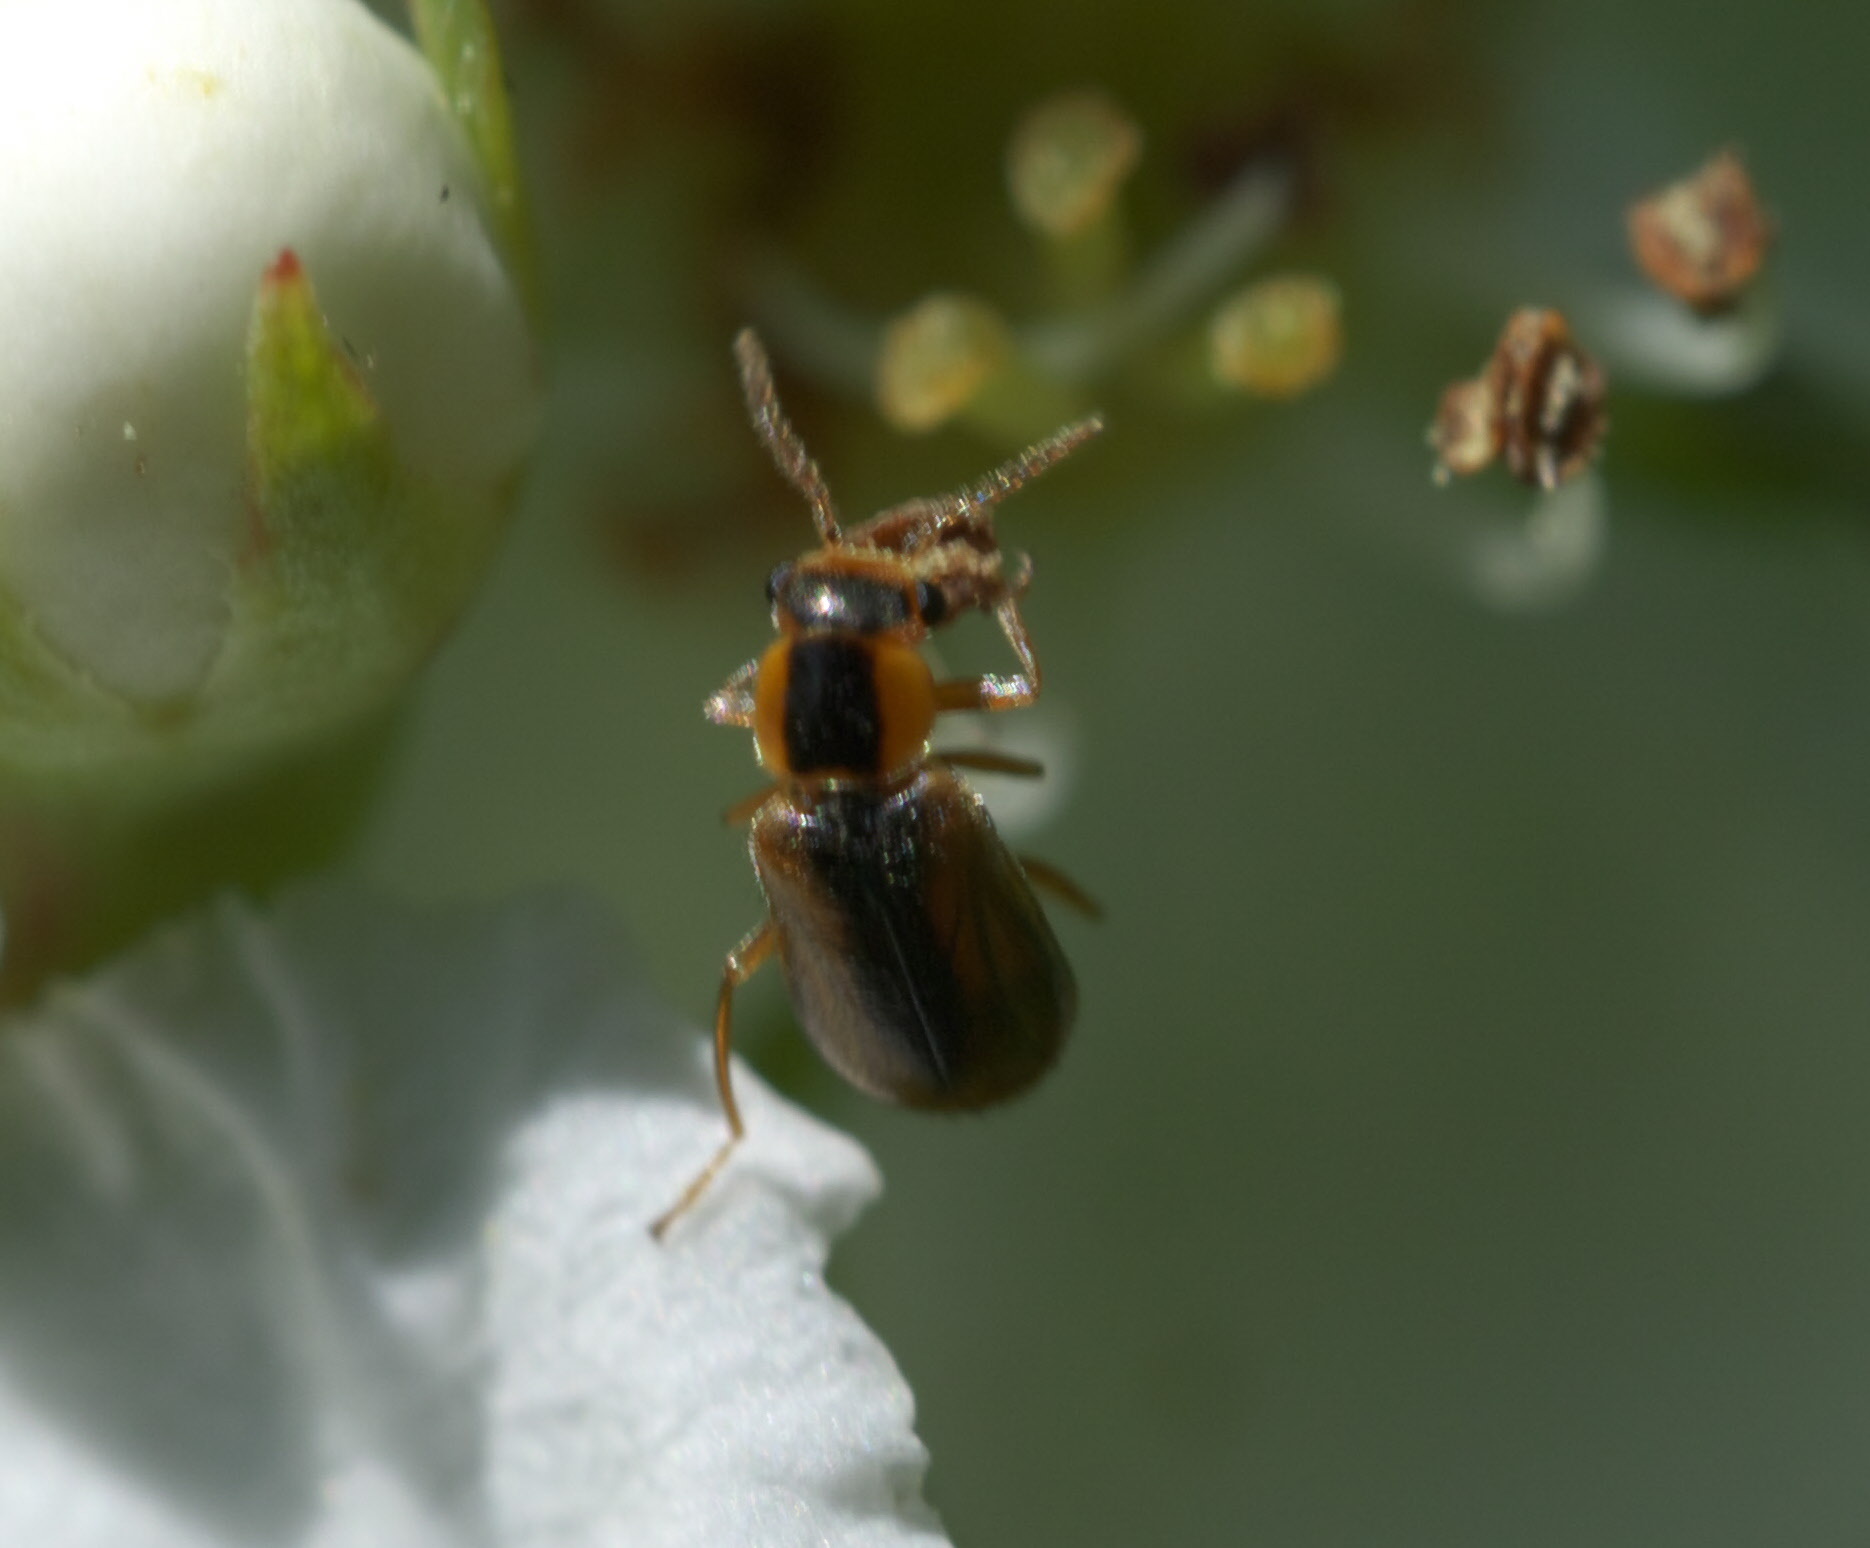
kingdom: Animalia
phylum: Arthropoda
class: Insecta
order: Coleoptera
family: Malachiidae
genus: Attalus
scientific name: Attalus
